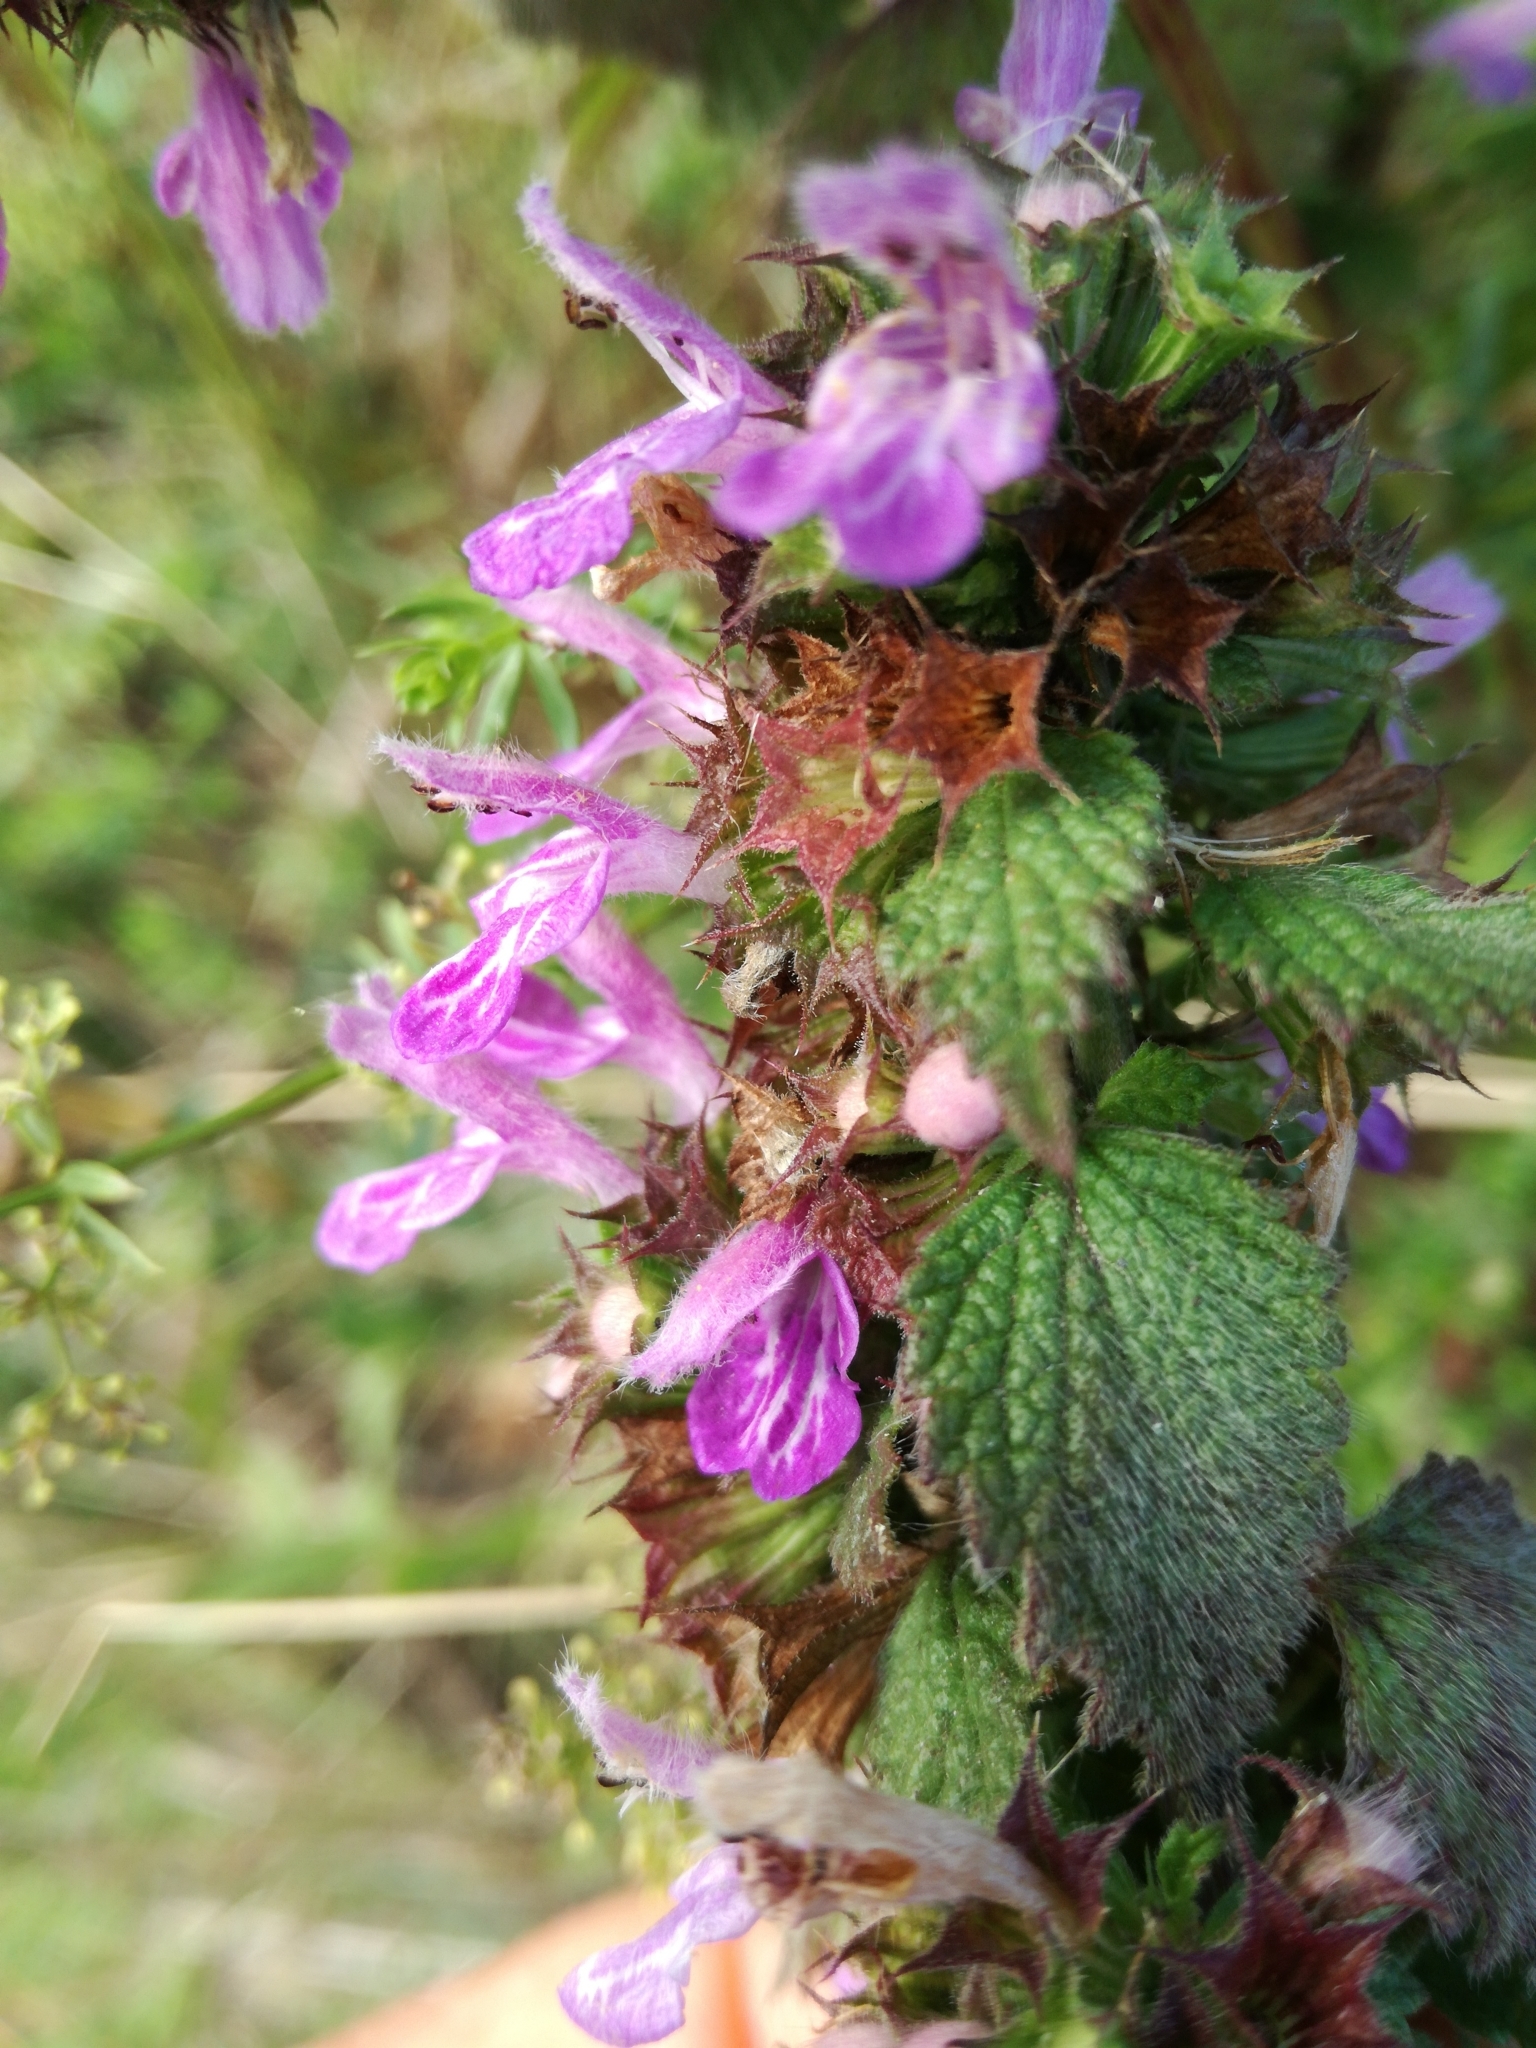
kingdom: Plantae
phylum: Tracheophyta
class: Magnoliopsida
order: Lamiales
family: Lamiaceae
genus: Ballota
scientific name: Ballota nigra
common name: Black horehound
